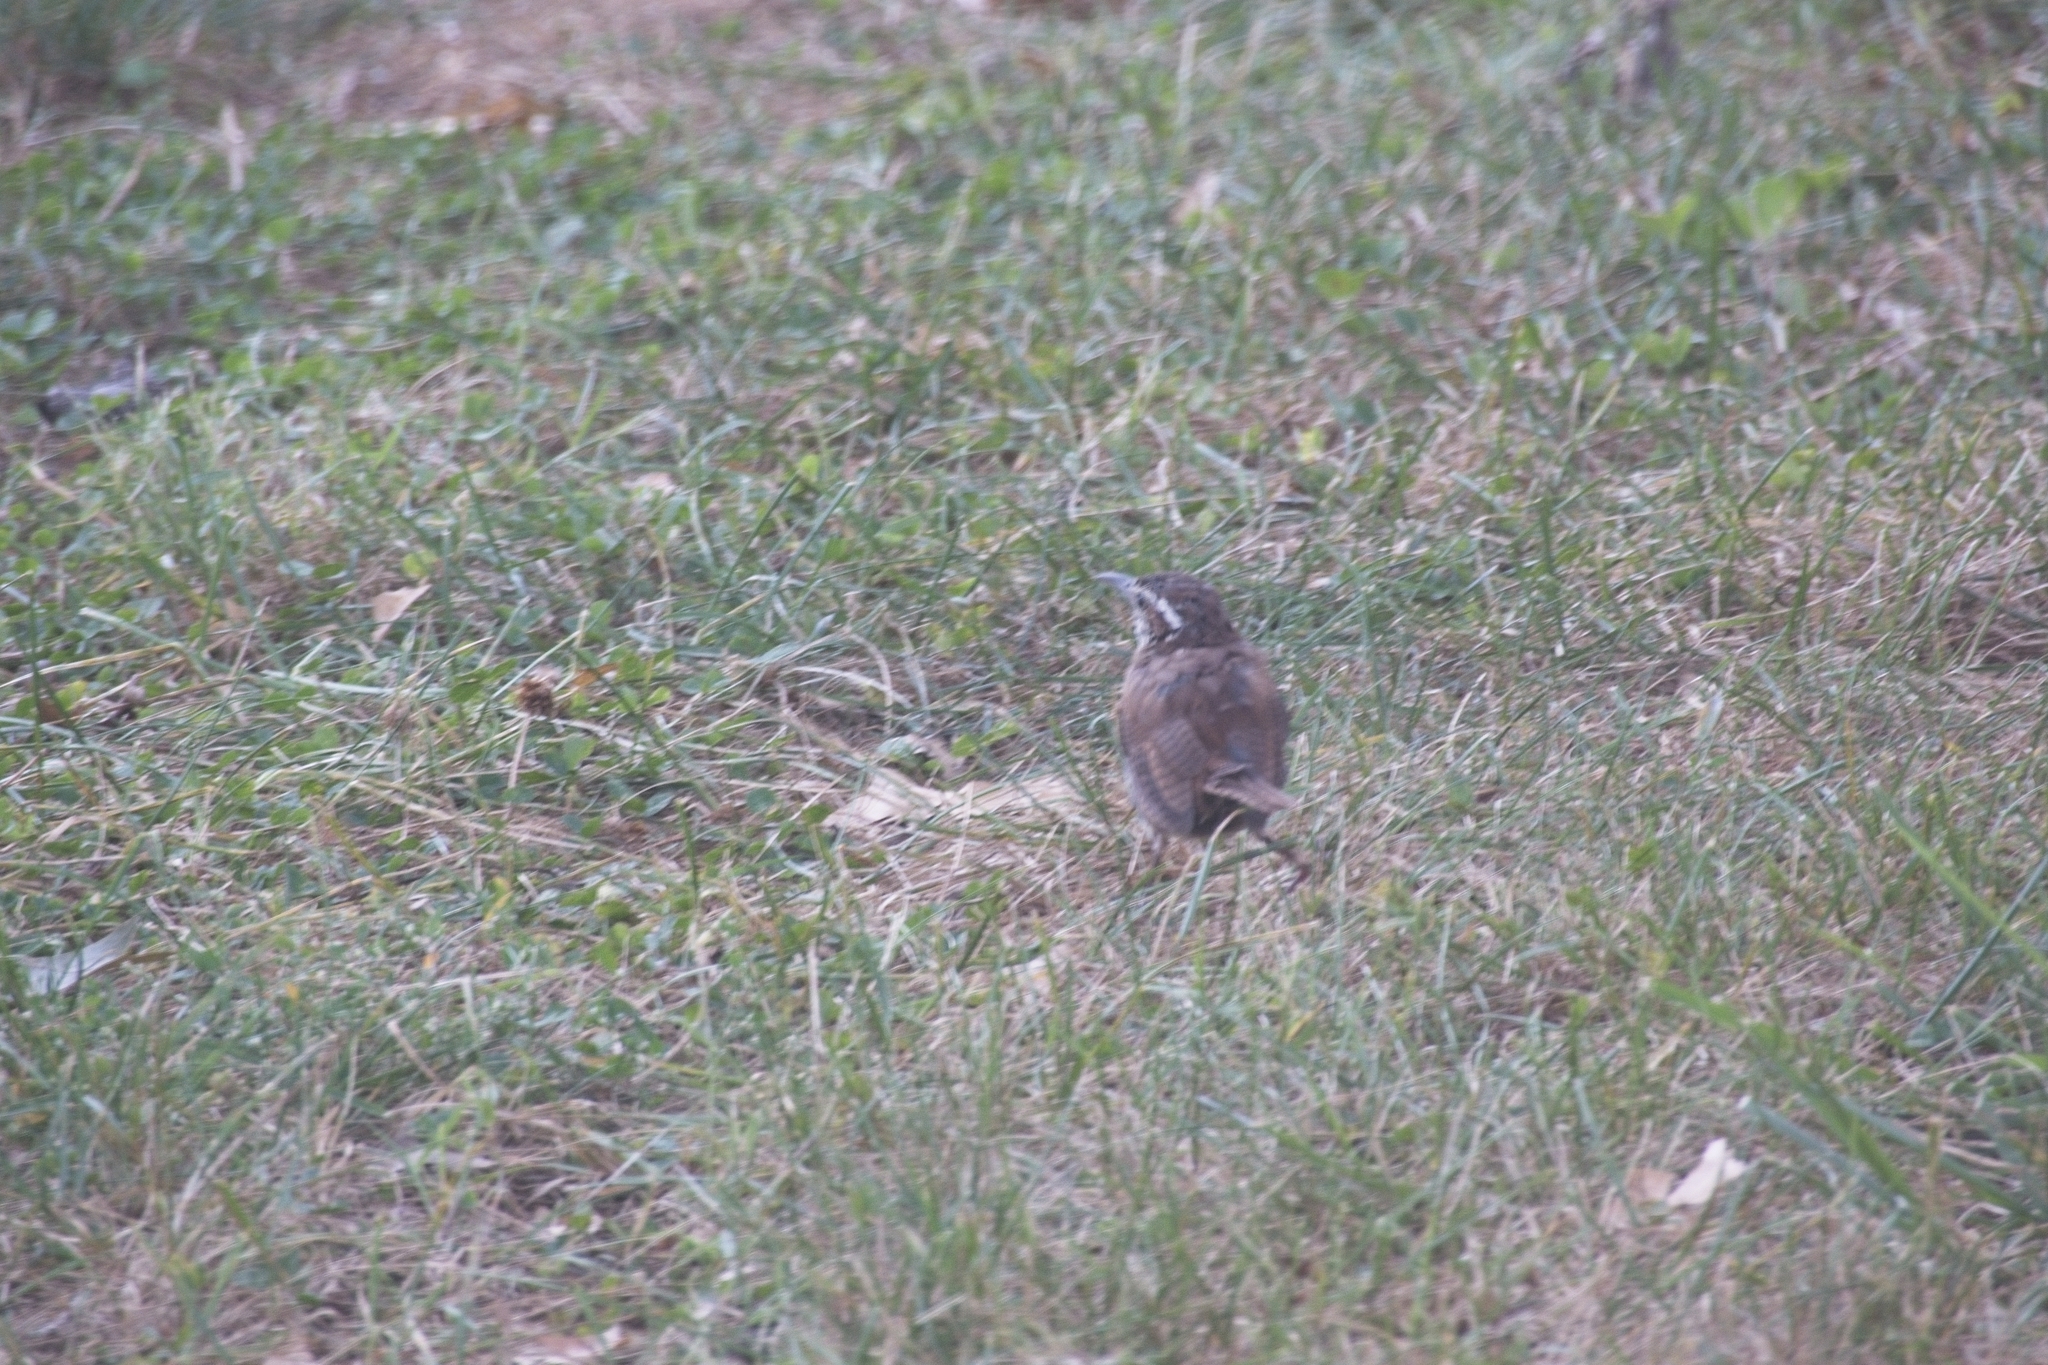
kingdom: Animalia
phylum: Chordata
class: Aves
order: Passeriformes
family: Troglodytidae
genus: Thryothorus
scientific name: Thryothorus ludovicianus
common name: Carolina wren
